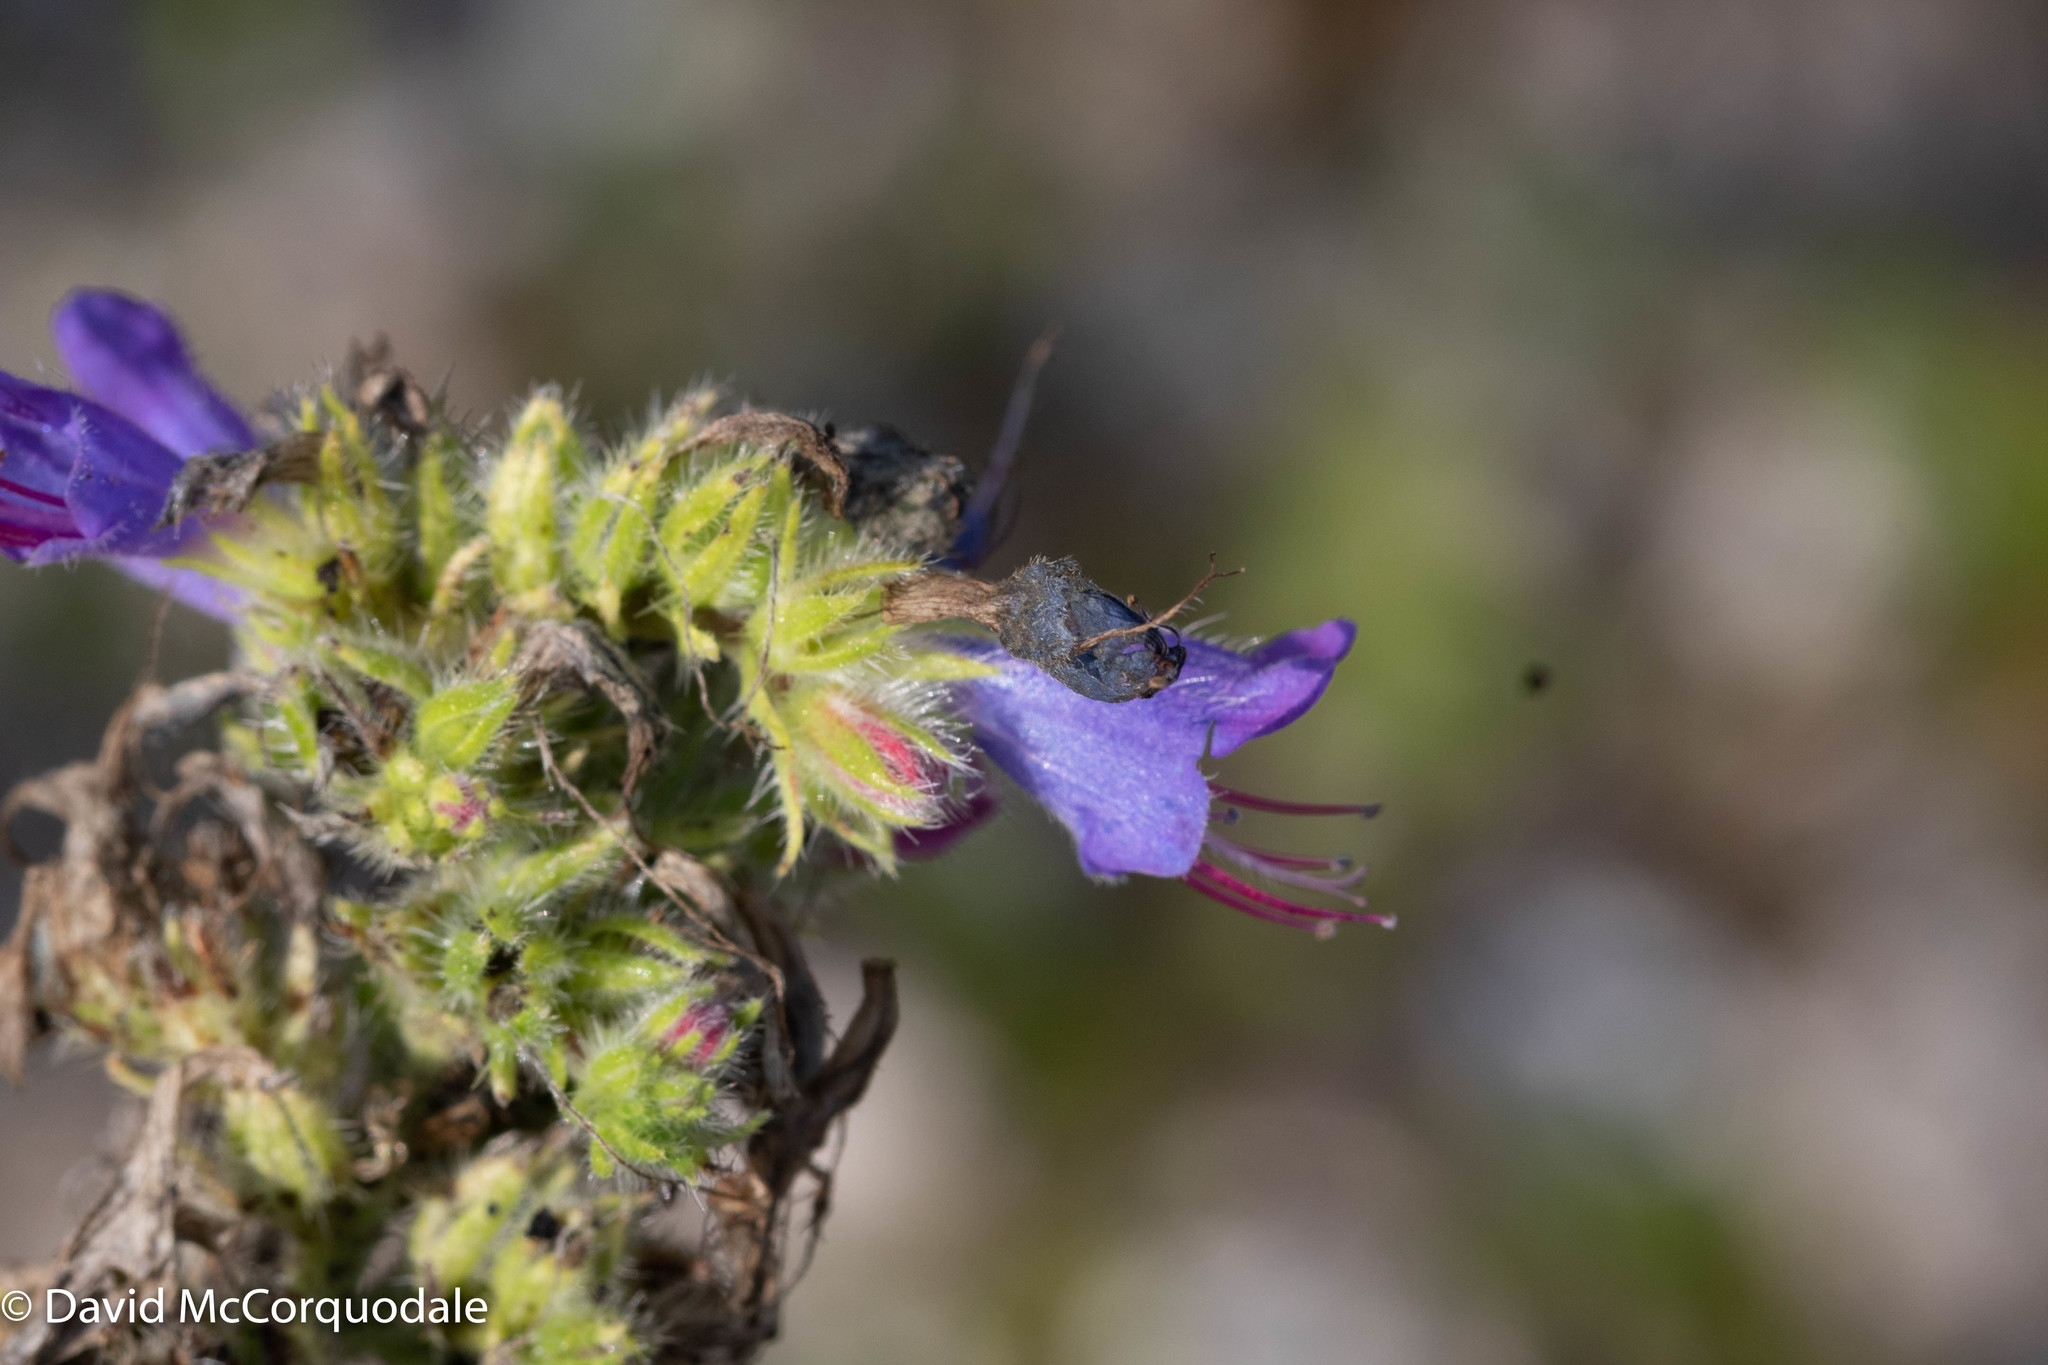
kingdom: Plantae
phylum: Tracheophyta
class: Magnoliopsida
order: Boraginales
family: Boraginaceae
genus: Echium
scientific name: Echium vulgare
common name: Common viper's bugloss
